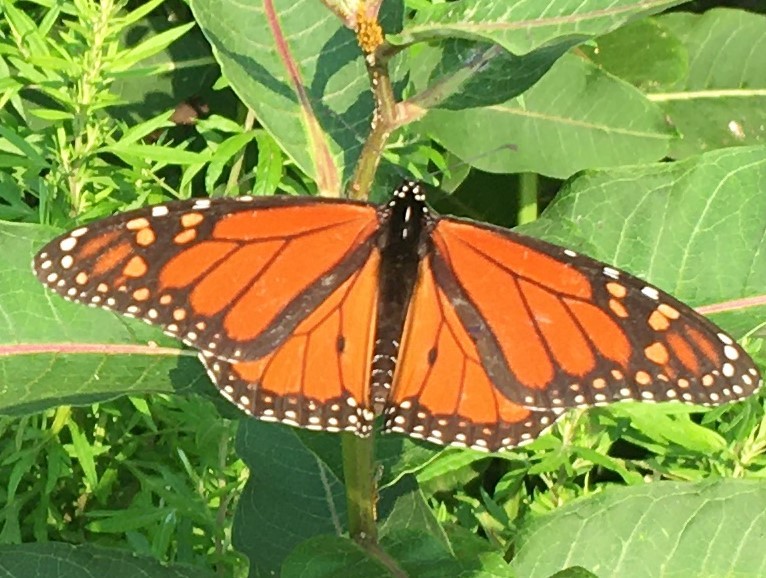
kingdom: Animalia
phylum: Arthropoda
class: Insecta
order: Lepidoptera
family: Nymphalidae
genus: Danaus
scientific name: Danaus plexippus
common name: Monarch
